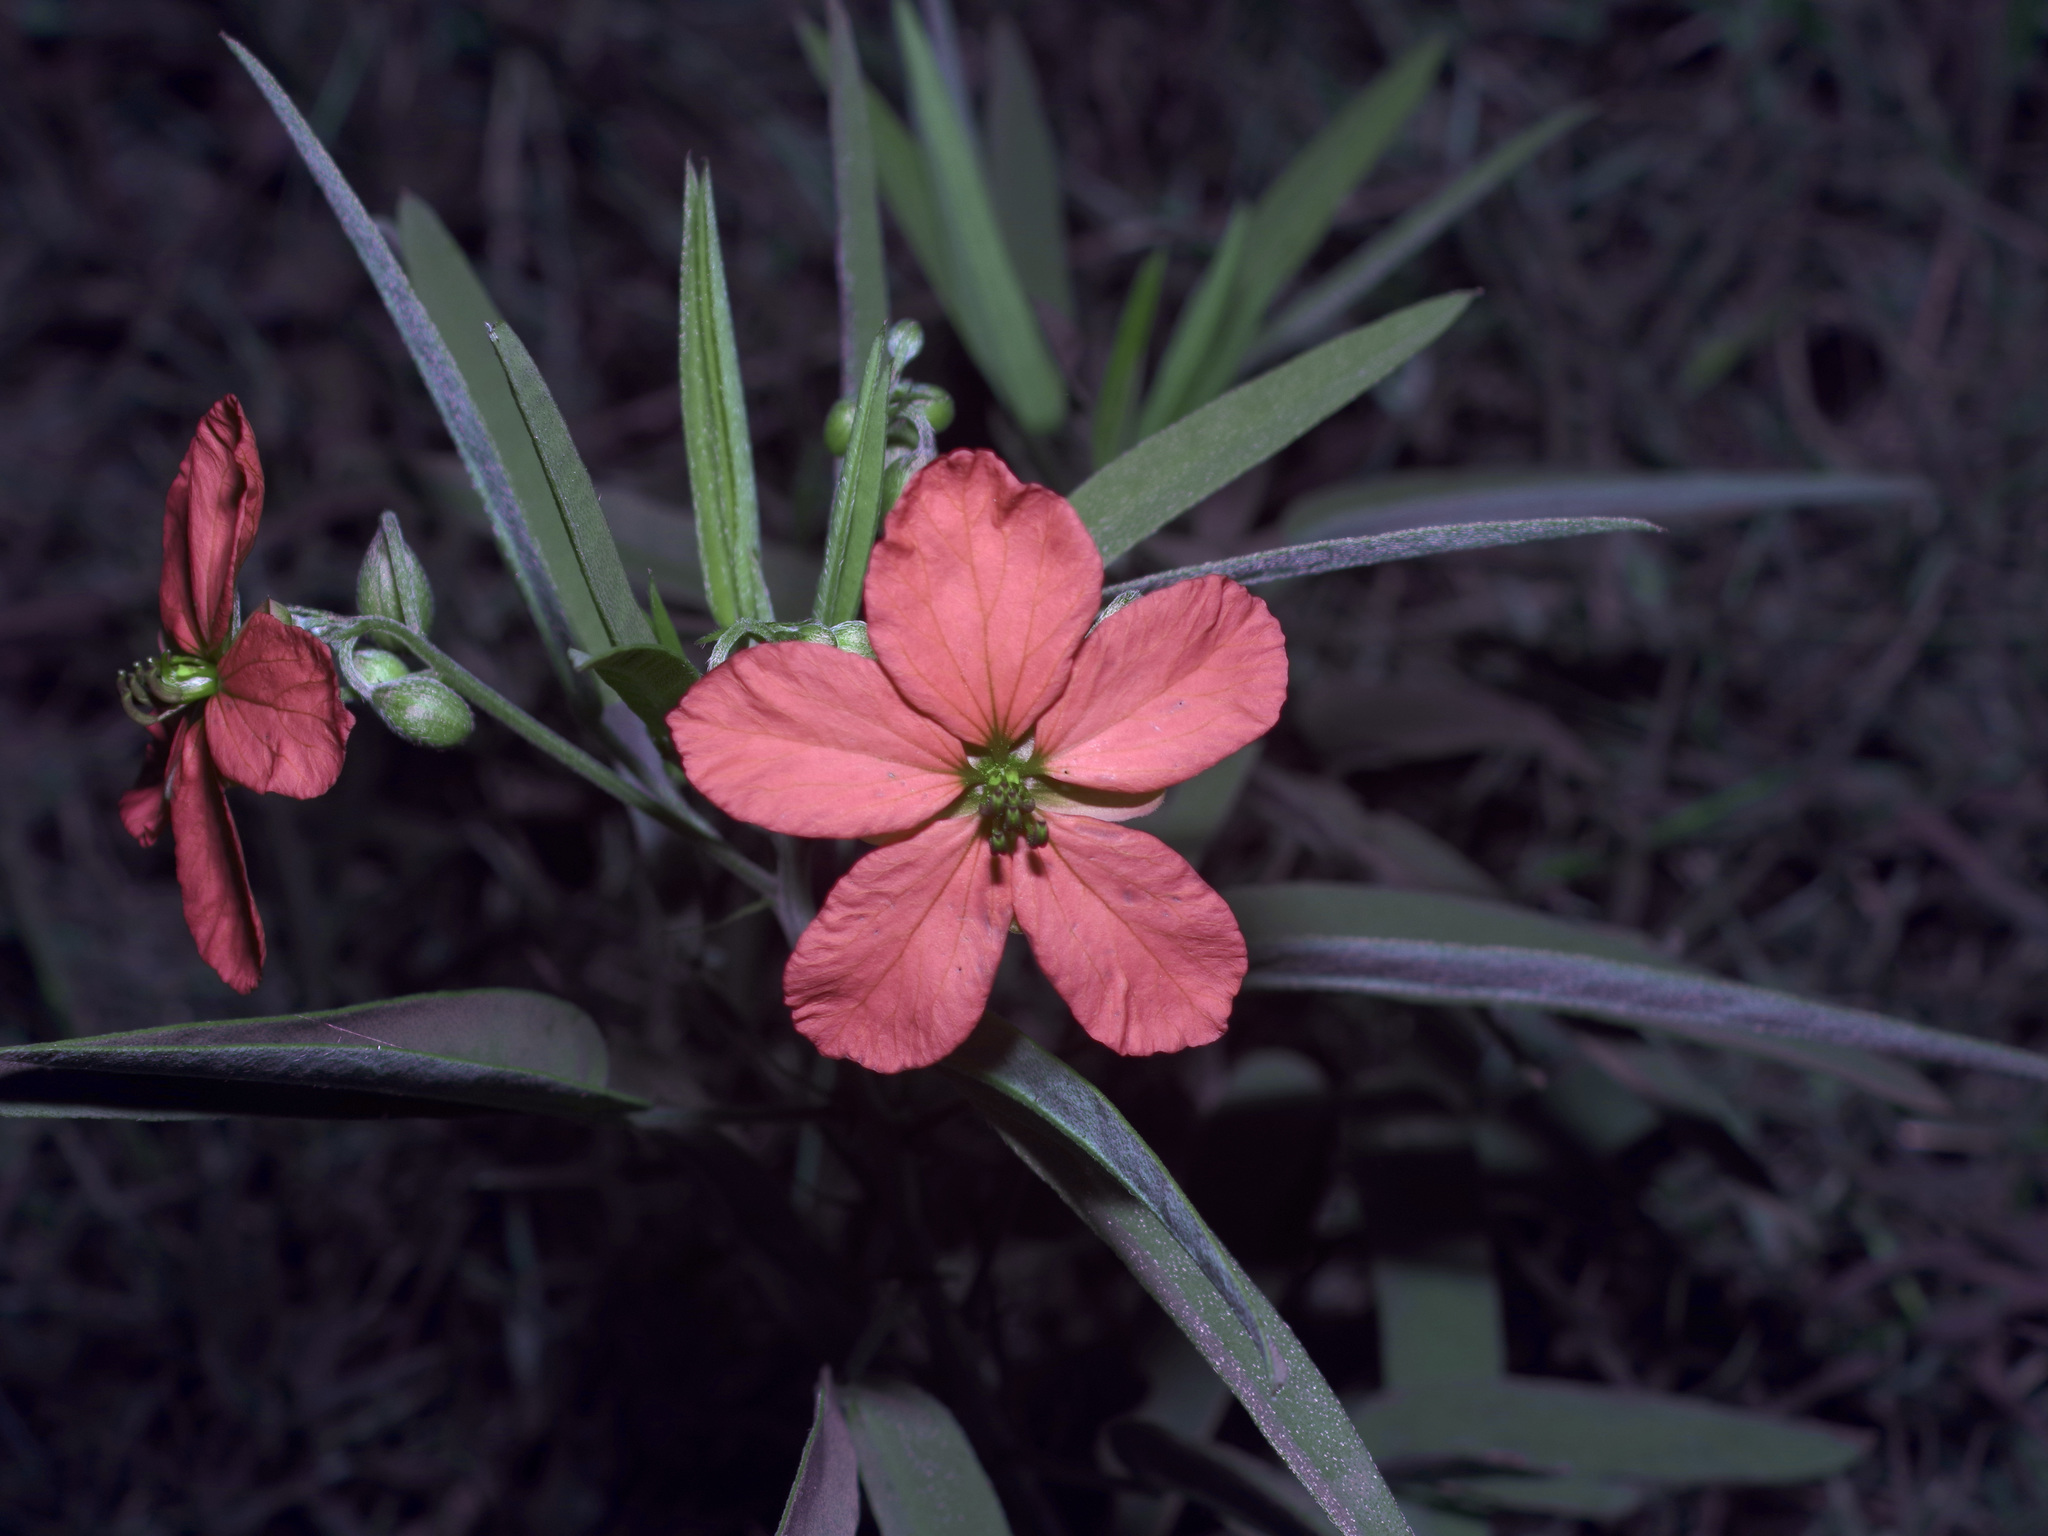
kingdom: Plantae
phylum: Tracheophyta
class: Magnoliopsida
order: Fabales
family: Fabaceae
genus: Senna
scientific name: Senna roemeriana
